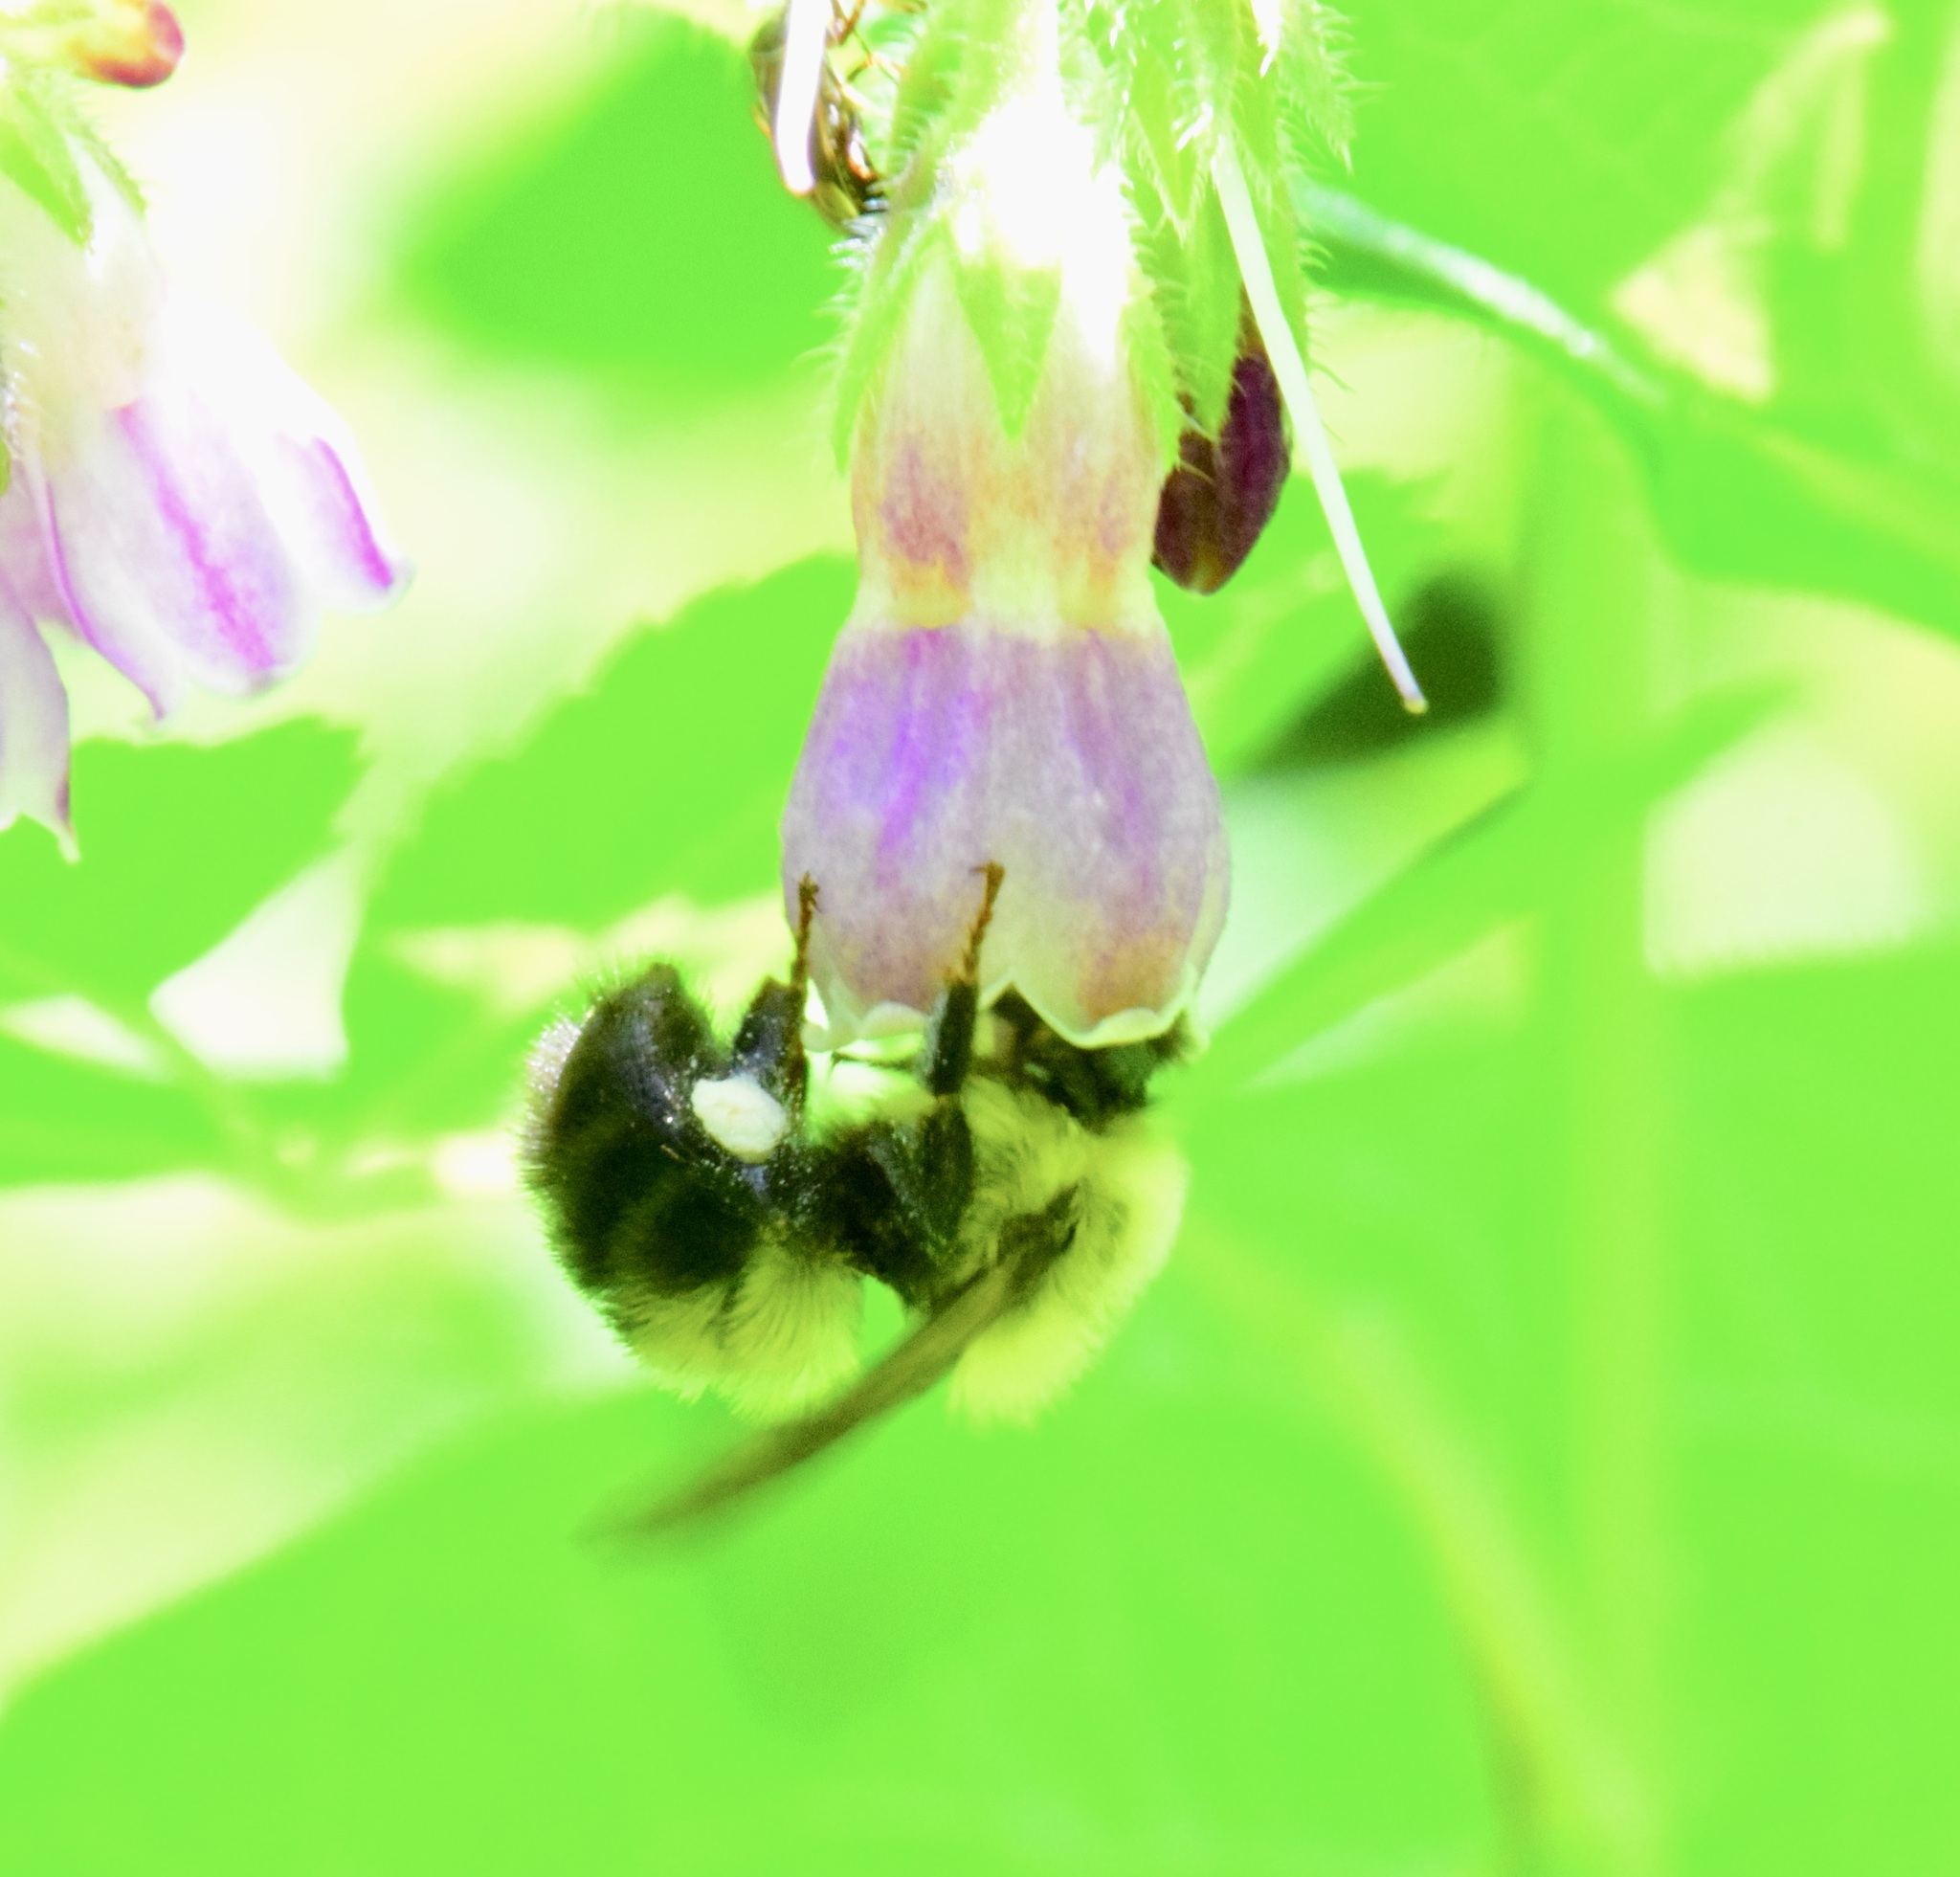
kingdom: Animalia
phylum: Arthropoda
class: Insecta
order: Hymenoptera
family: Apidae
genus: Bombus
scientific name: Bombus bimaculatus
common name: Two-spotted bumble bee
